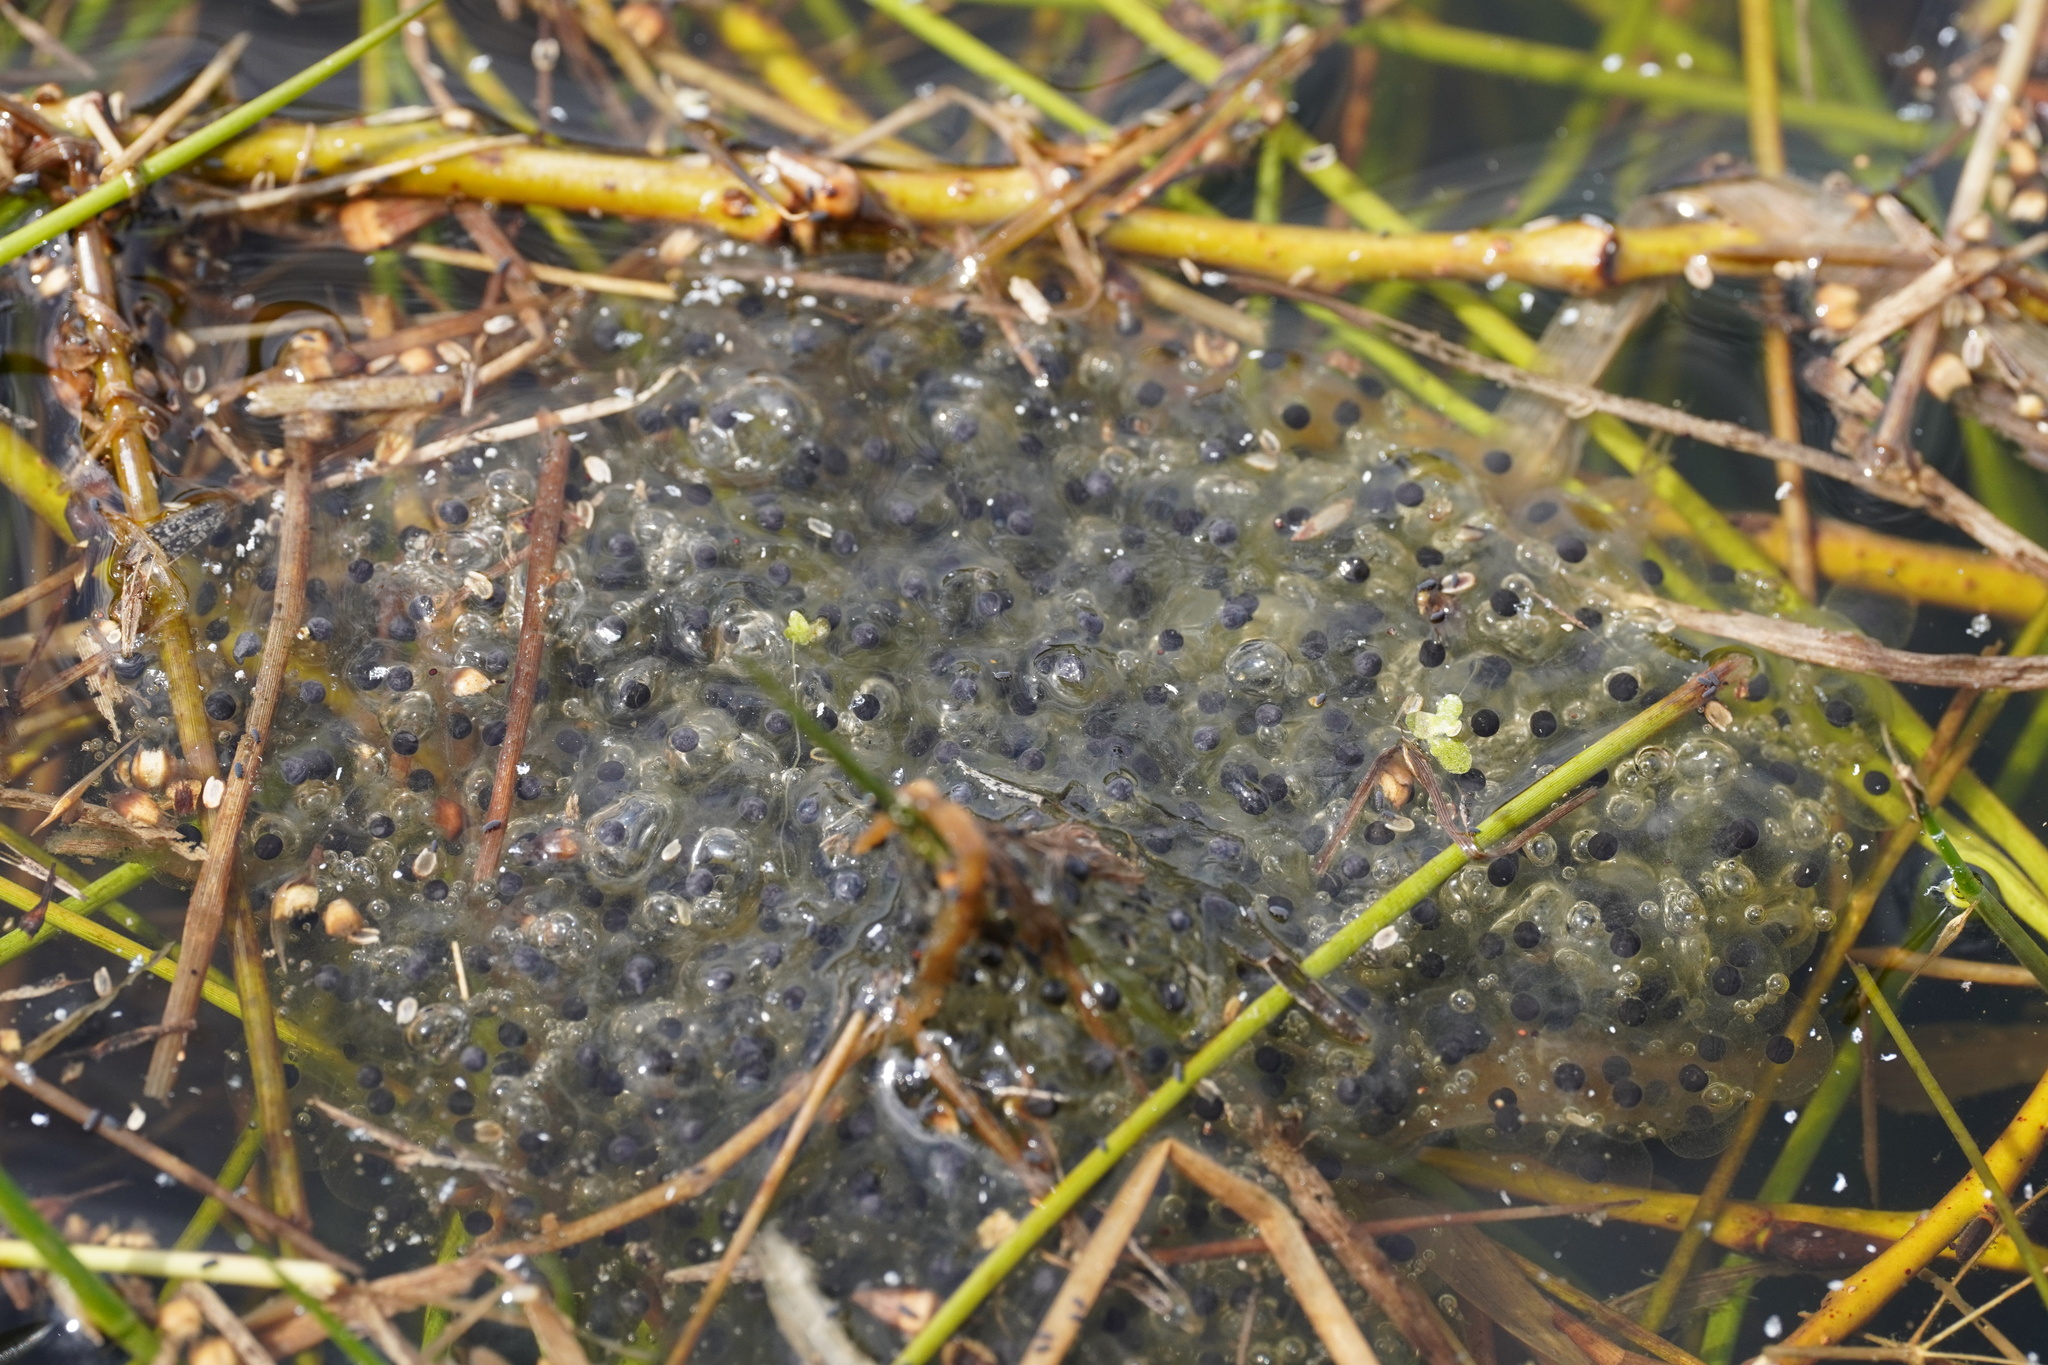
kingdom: Animalia
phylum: Chordata
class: Amphibia
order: Anura
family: Ranidae
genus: Rana
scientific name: Rana arvalis
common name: Moor frog
